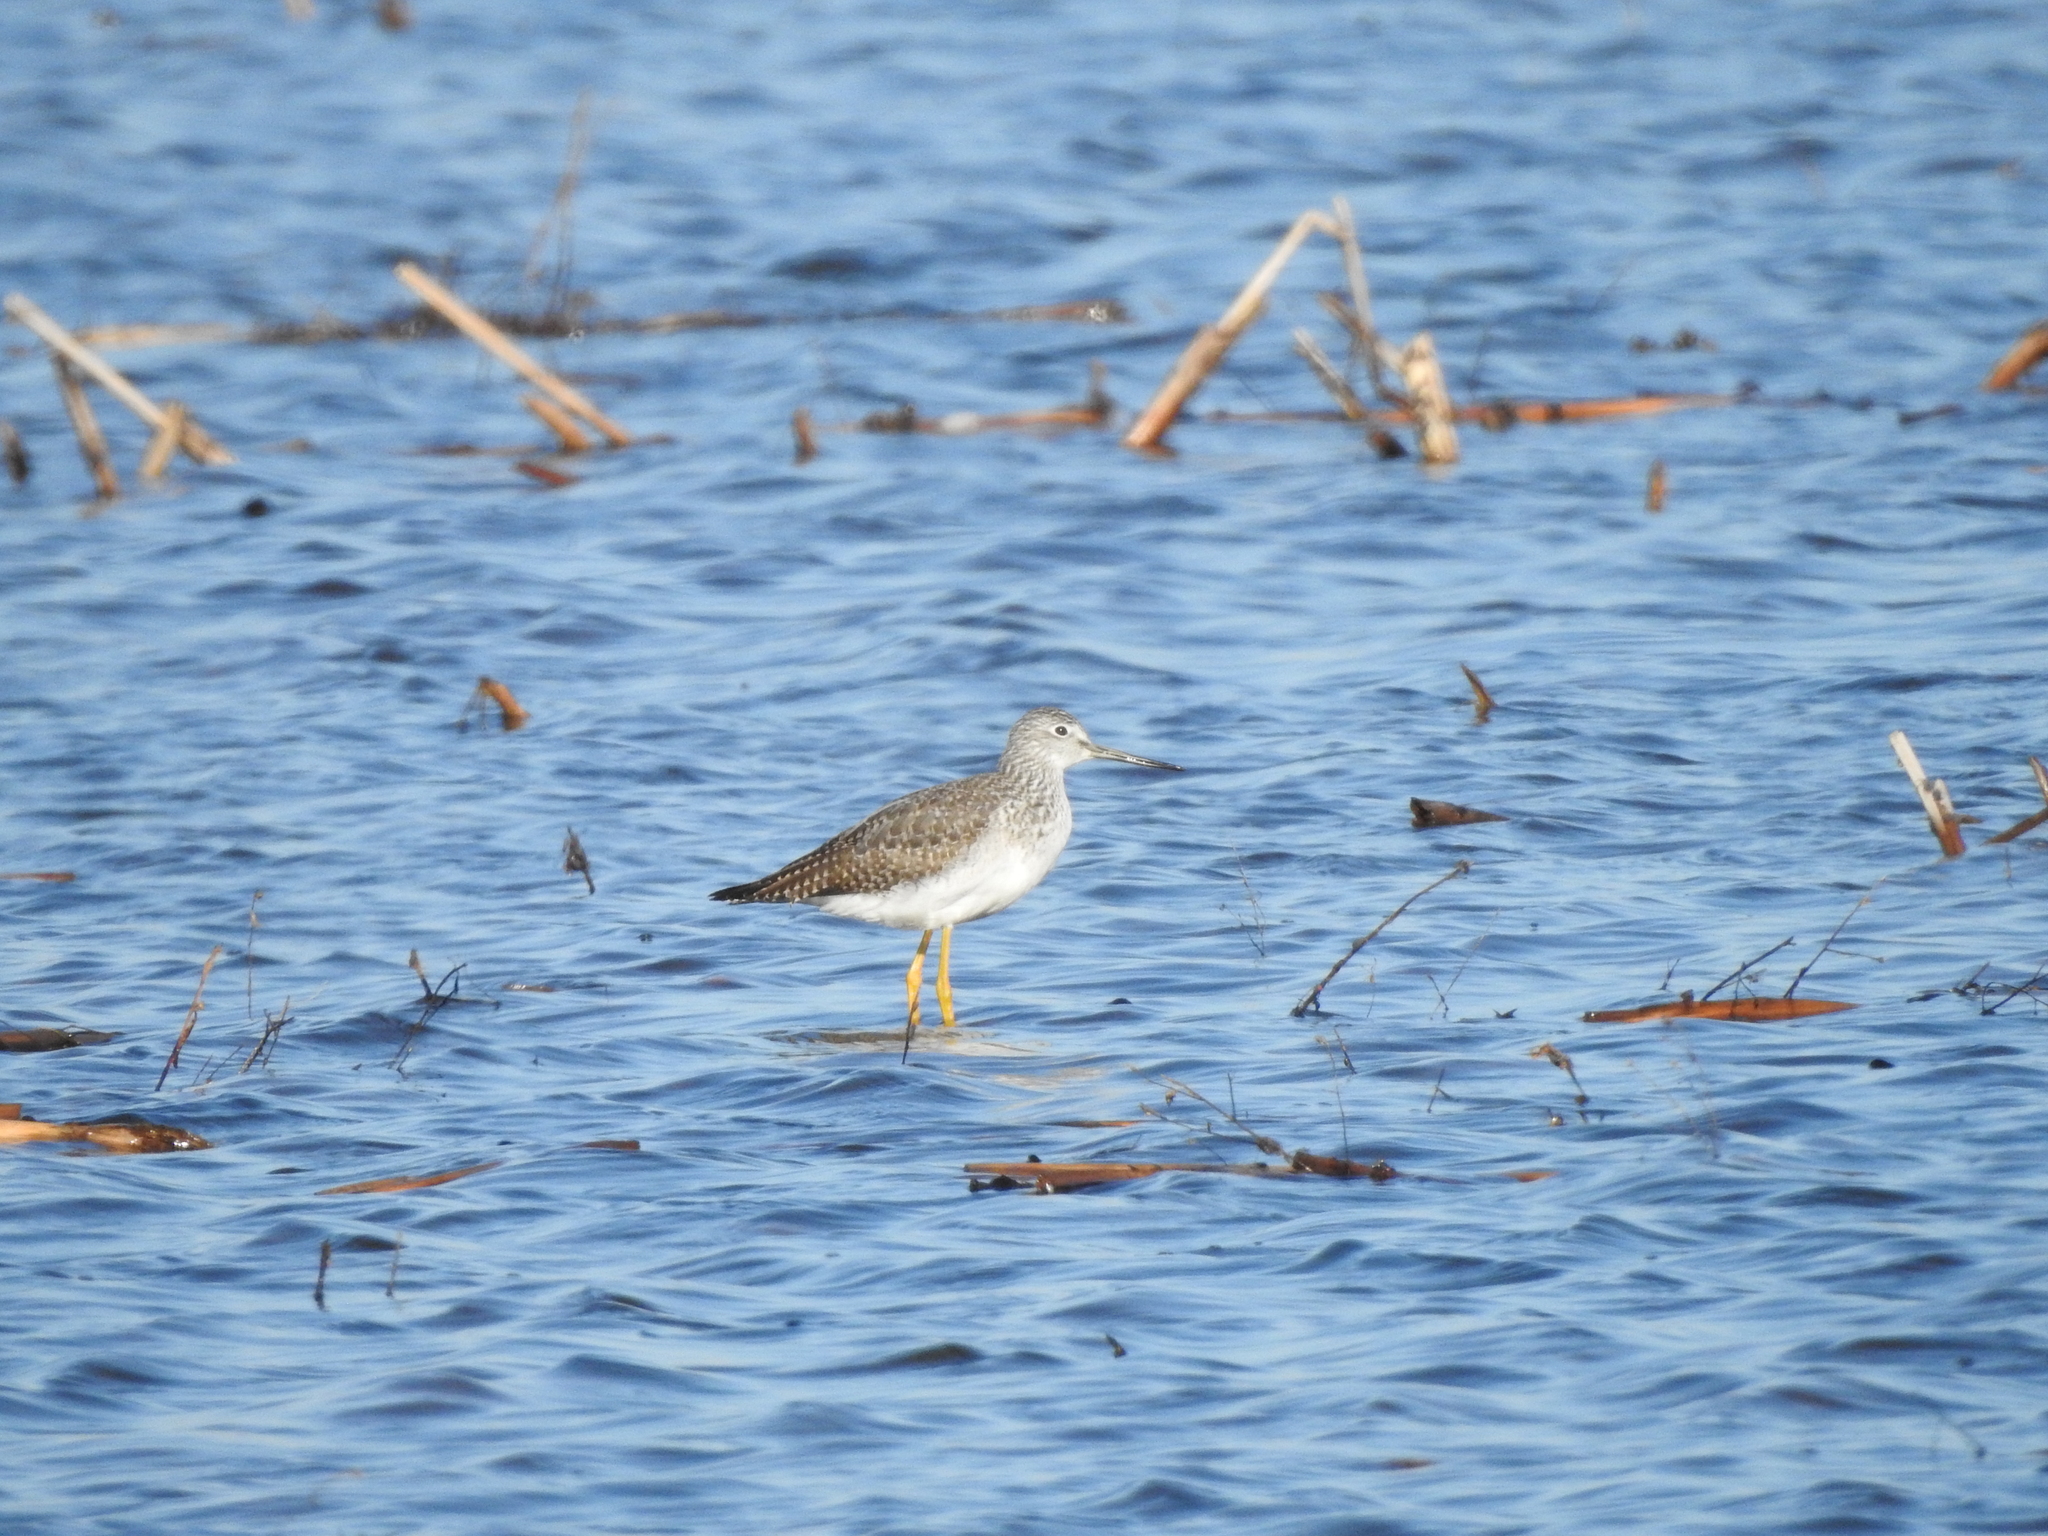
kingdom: Animalia
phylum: Chordata
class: Aves
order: Charadriiformes
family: Scolopacidae
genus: Tringa
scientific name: Tringa melanoleuca
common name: Greater yellowlegs
